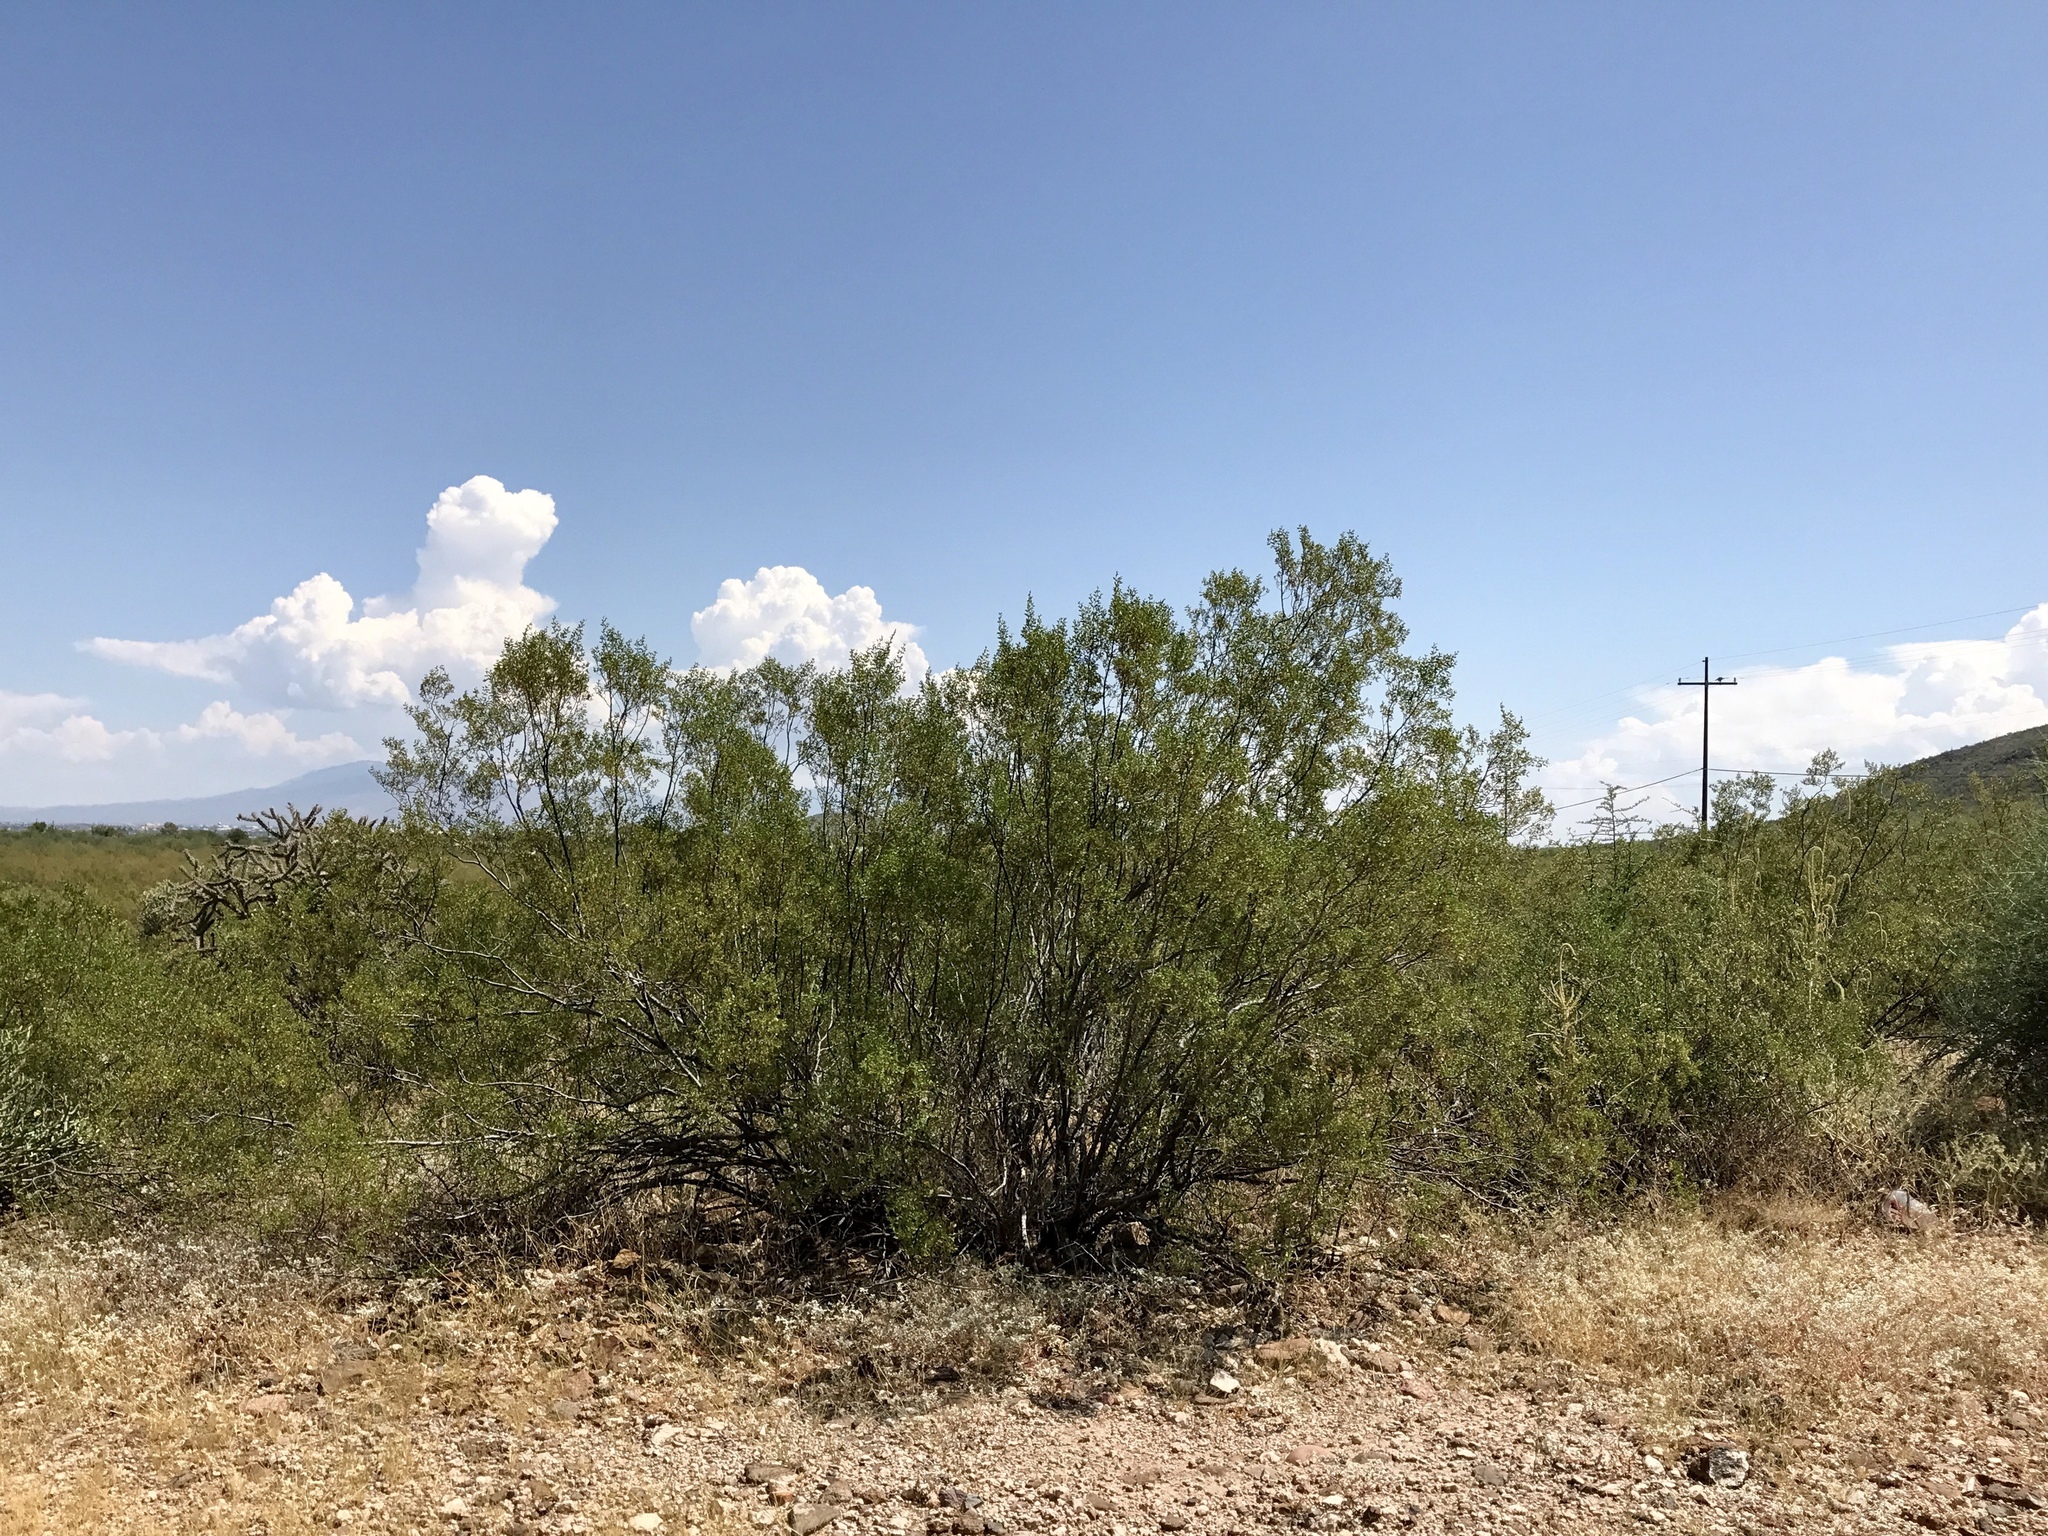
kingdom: Plantae
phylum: Tracheophyta
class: Magnoliopsida
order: Zygophyllales
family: Zygophyllaceae
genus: Larrea
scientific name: Larrea tridentata
